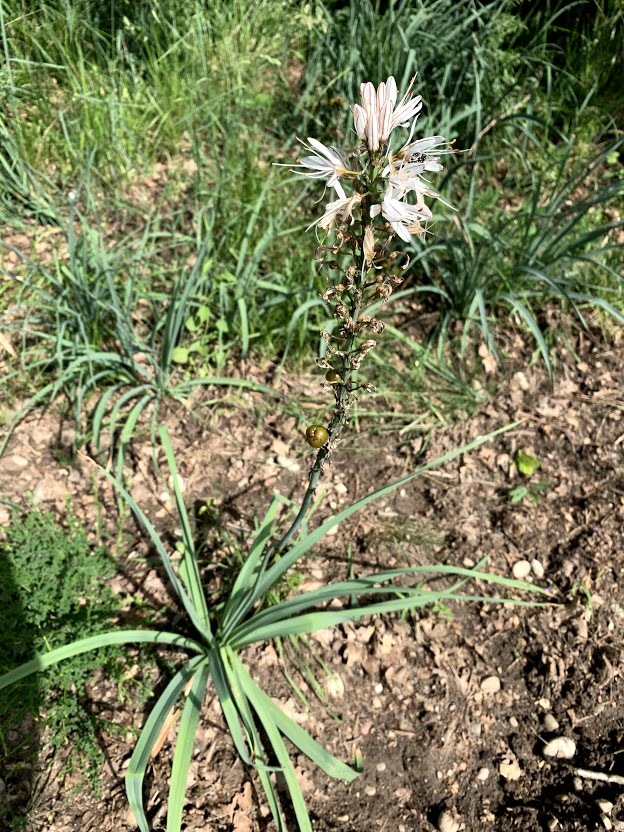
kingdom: Plantae
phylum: Tracheophyta
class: Liliopsida
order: Asparagales
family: Asphodelaceae
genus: Asphodelus
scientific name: Asphodelus albus
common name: White asphodel
